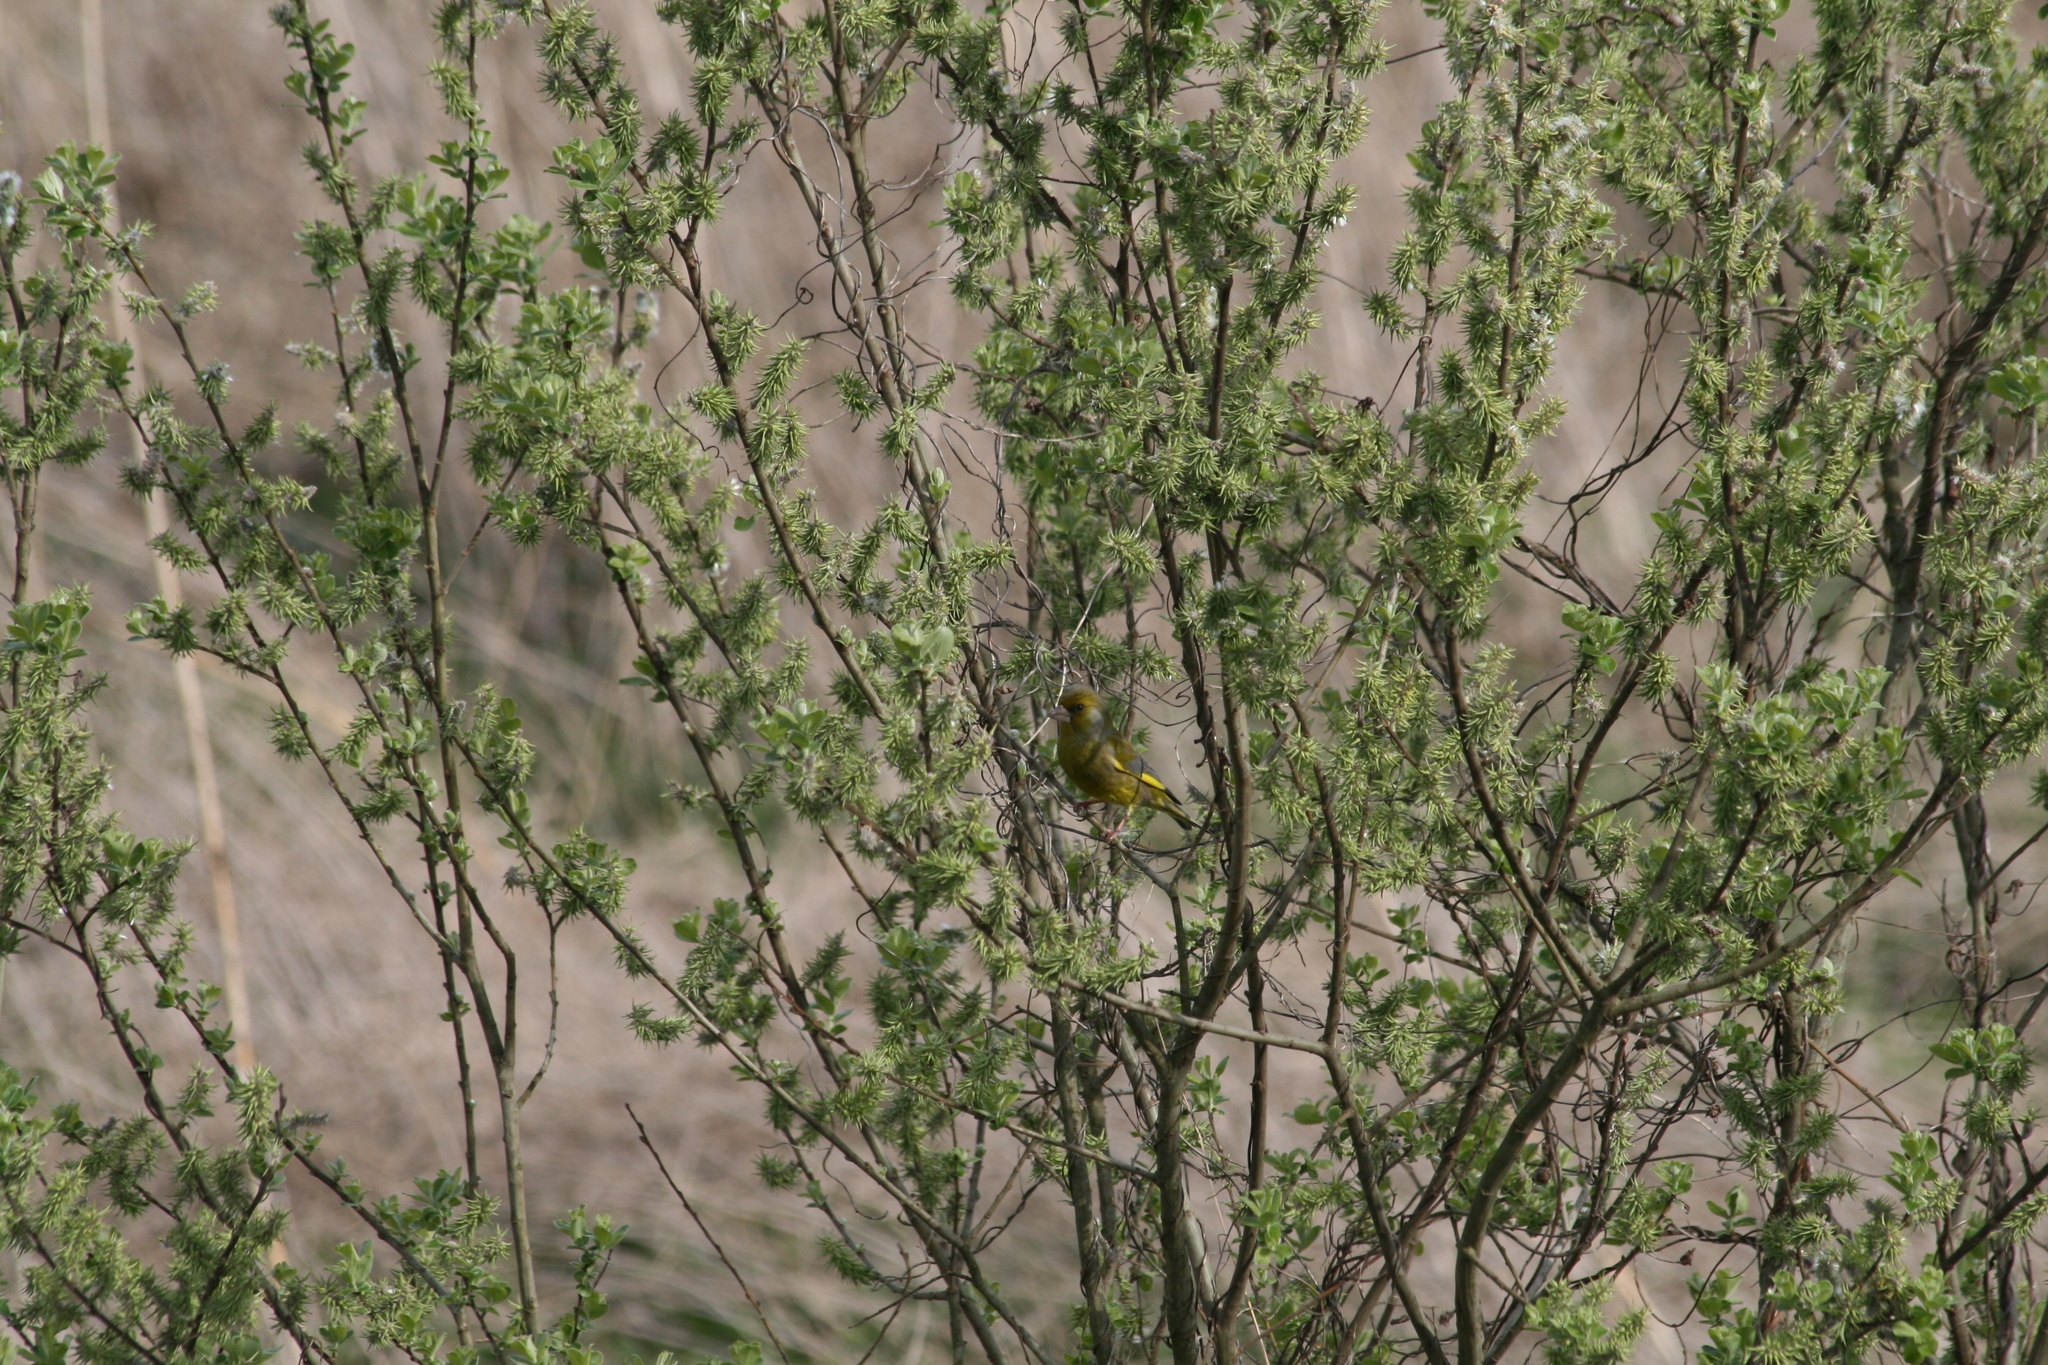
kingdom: Plantae
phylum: Tracheophyta
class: Liliopsida
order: Poales
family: Poaceae
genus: Chloris
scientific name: Chloris chloris
